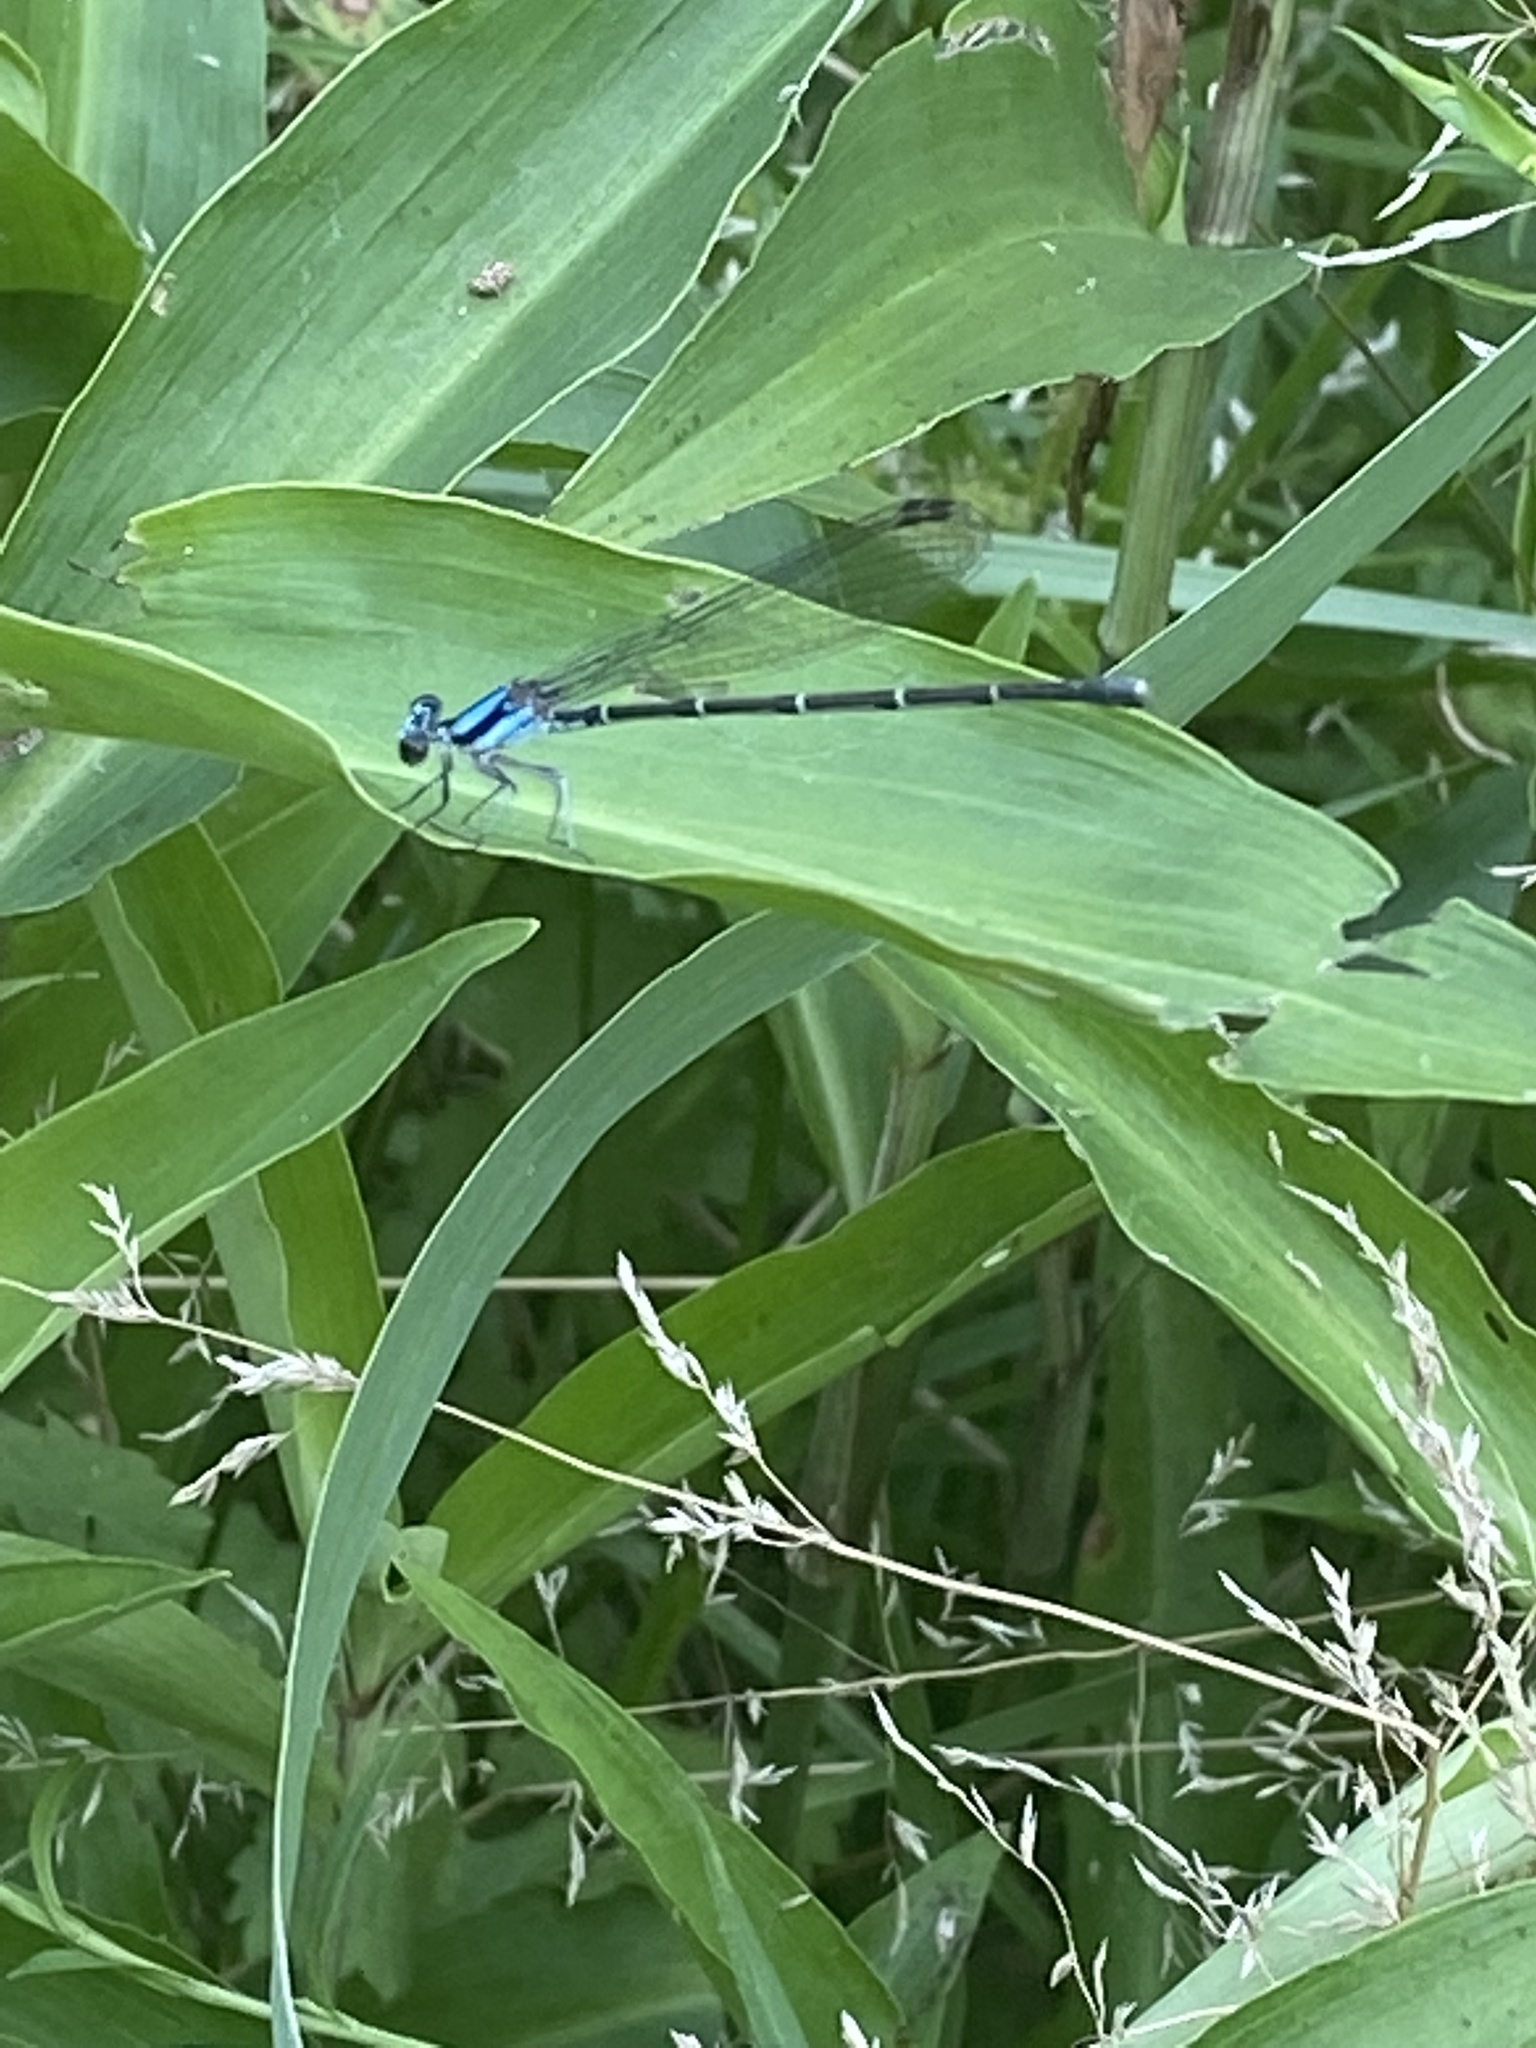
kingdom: Animalia
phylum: Arthropoda
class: Insecta
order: Odonata
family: Coenagrionidae
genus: Argia
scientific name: Argia tibialis
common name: Blue-tipped dancer
